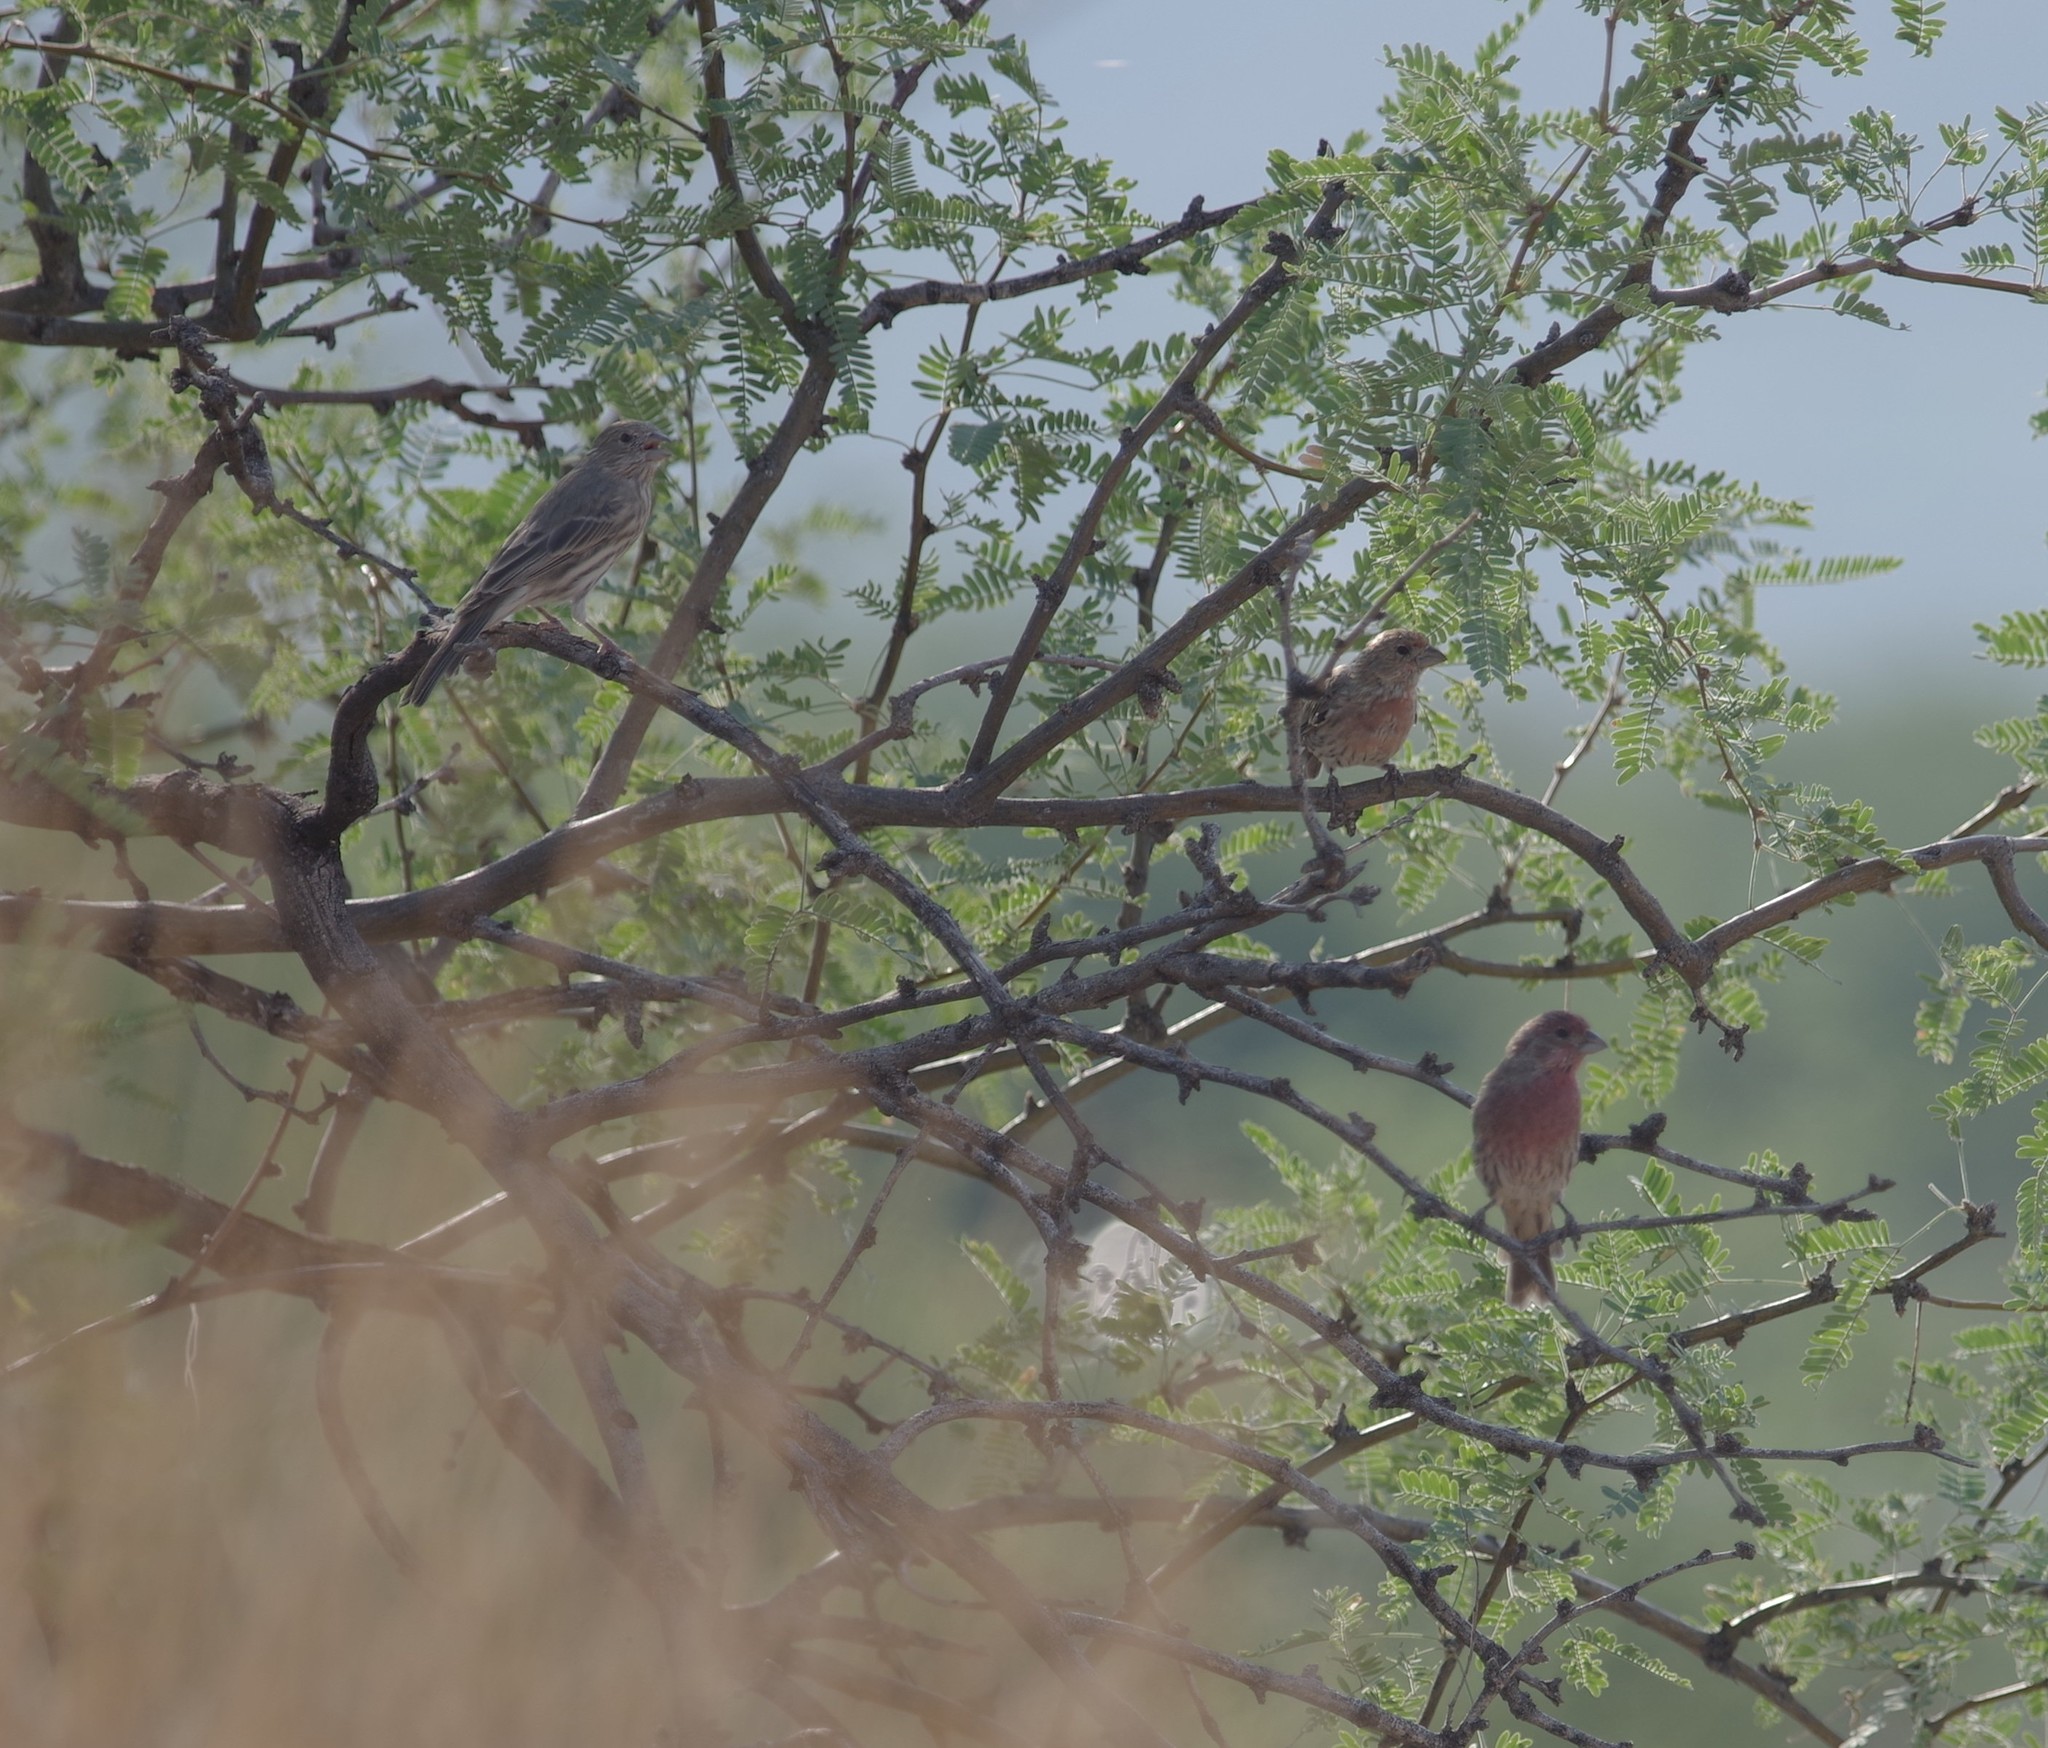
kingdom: Animalia
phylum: Chordata
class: Aves
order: Passeriformes
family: Fringillidae
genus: Haemorhous
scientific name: Haemorhous mexicanus
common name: House finch
